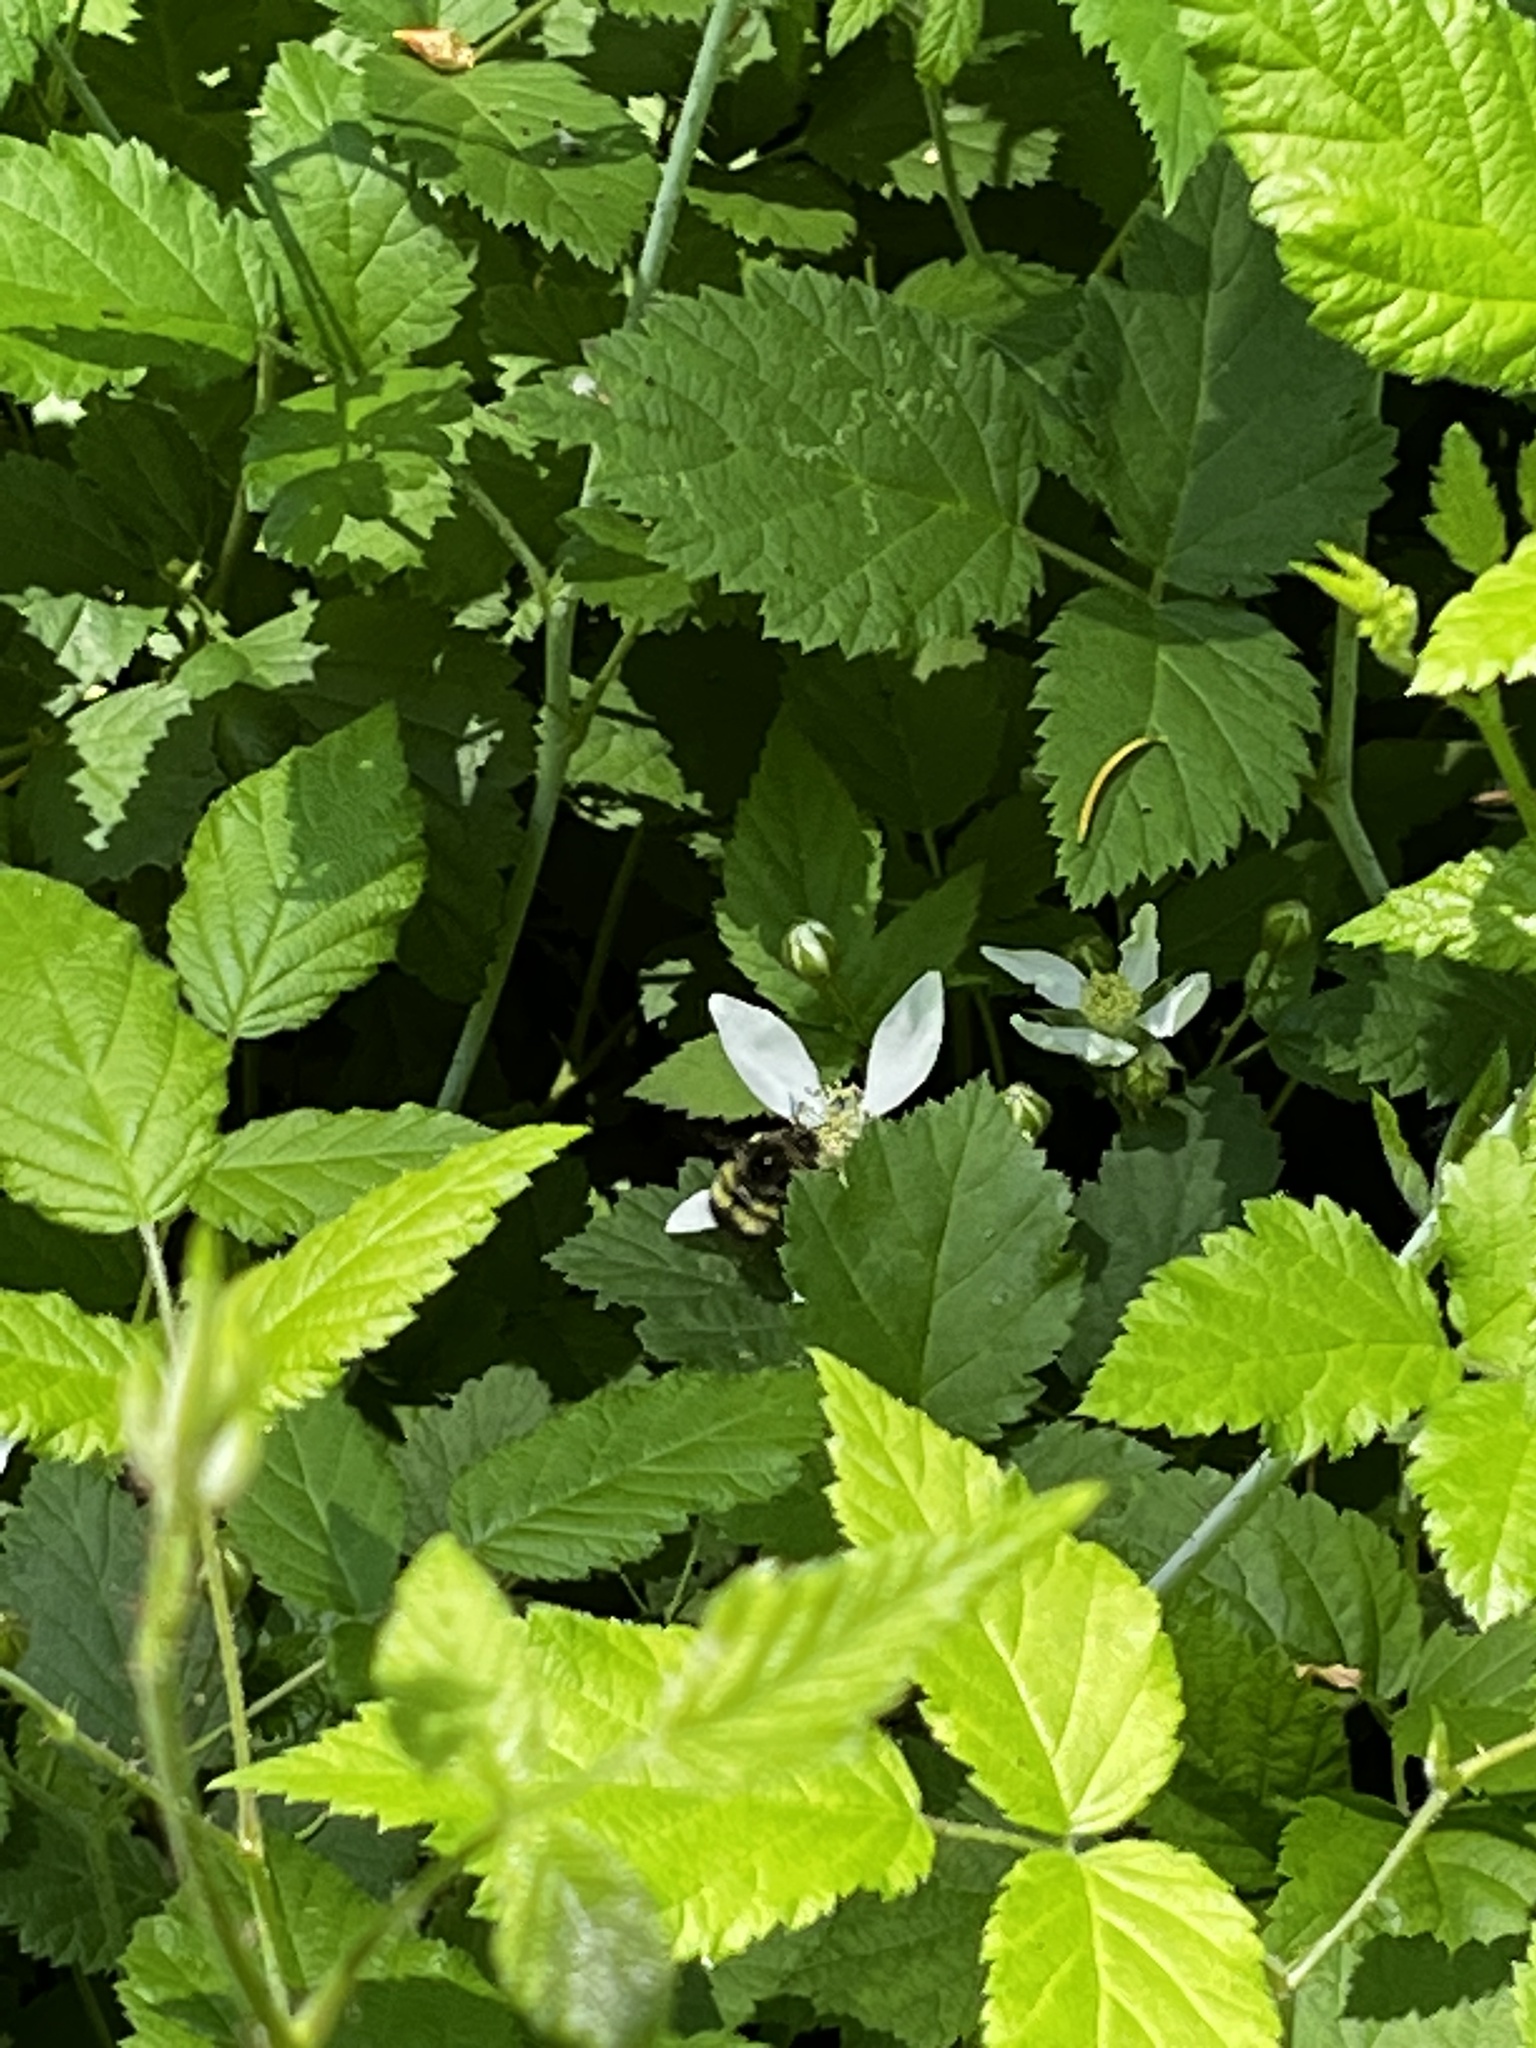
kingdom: Plantae
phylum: Tracheophyta
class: Magnoliopsida
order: Rosales
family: Rosaceae
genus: Rubus
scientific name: Rubus ursinus
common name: Pacific blackberry
